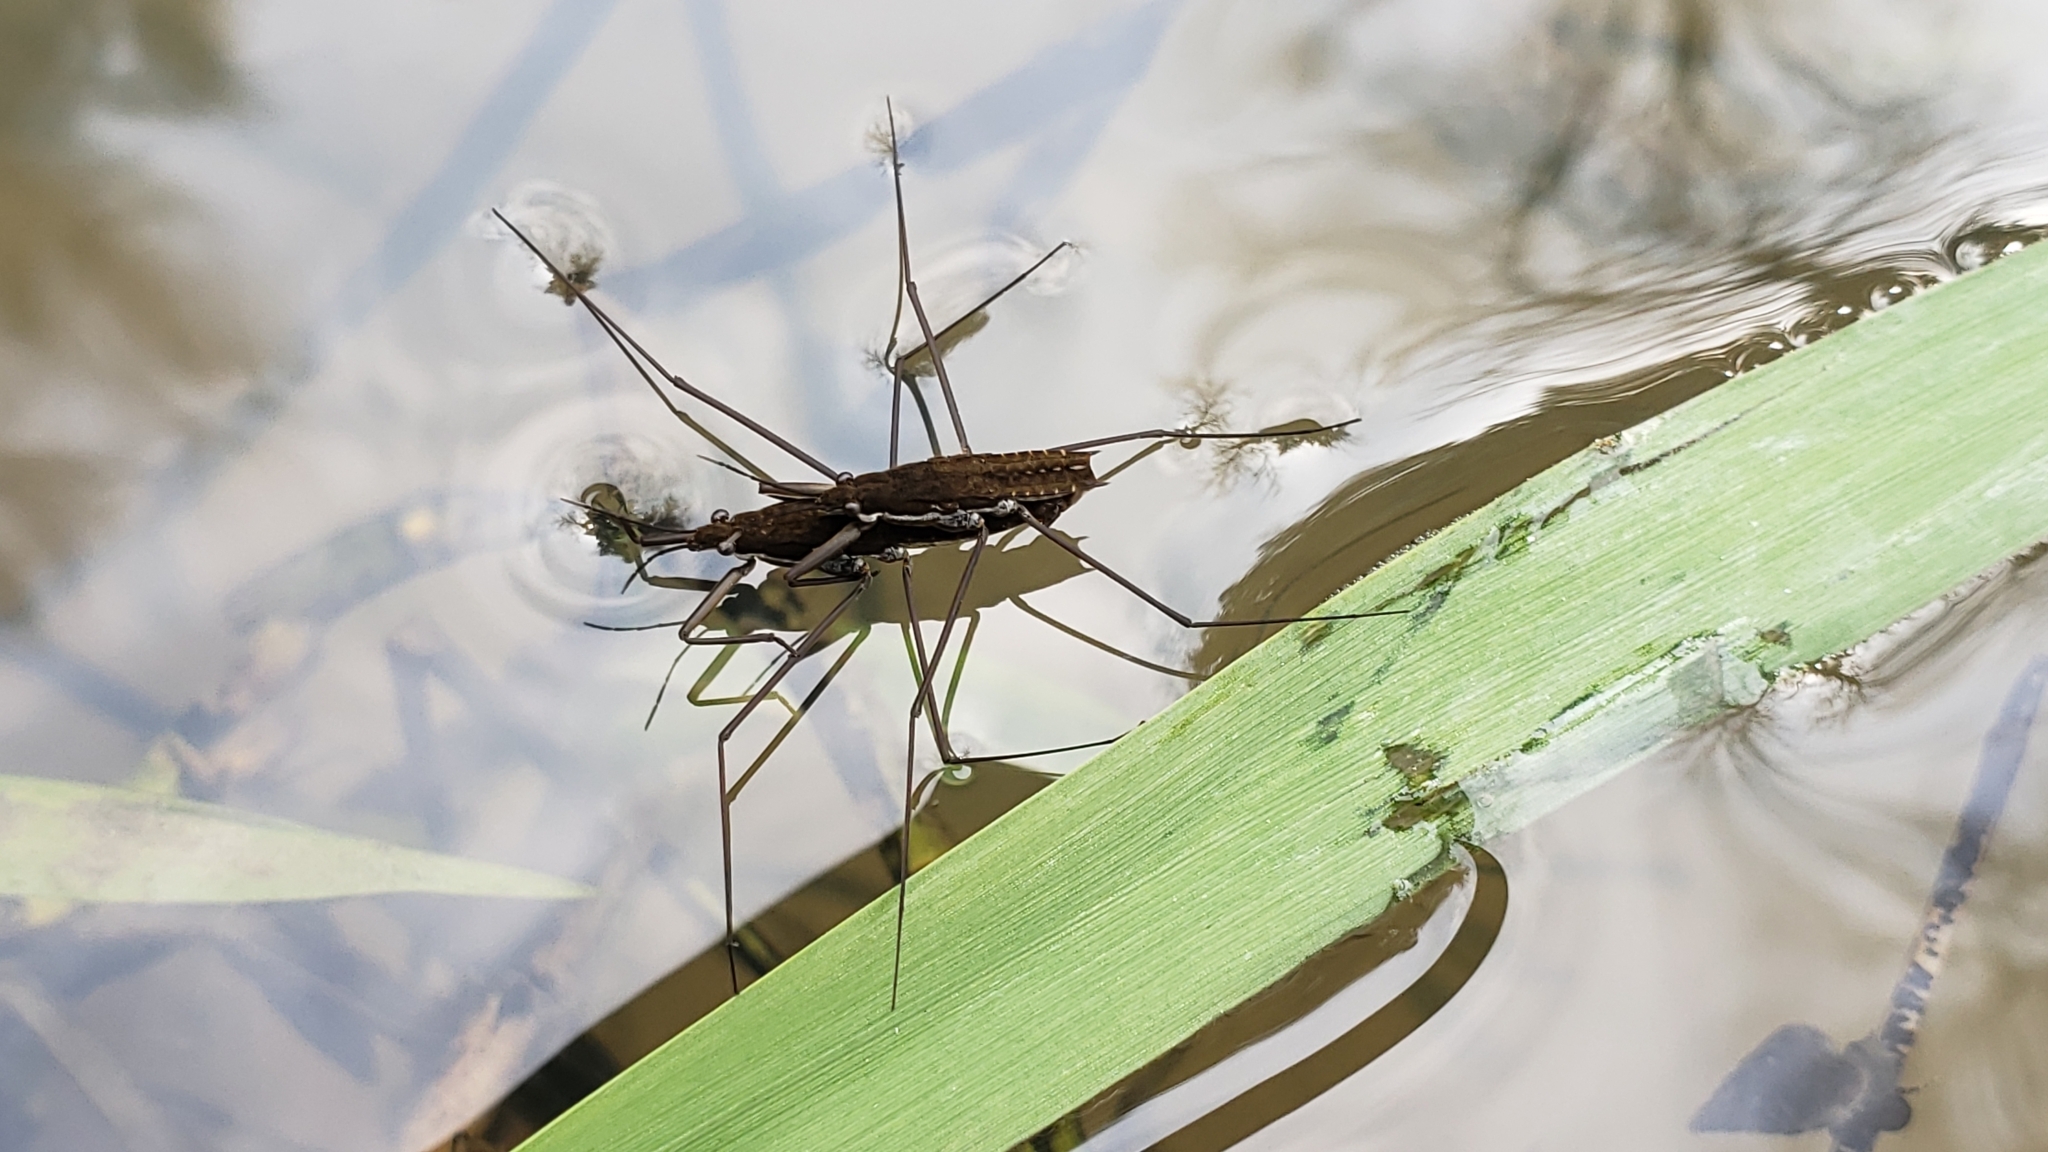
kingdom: Animalia
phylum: Arthropoda
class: Insecta
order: Hemiptera
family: Gerridae
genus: Aquarius
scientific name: Aquarius remigis
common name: Common water strider
